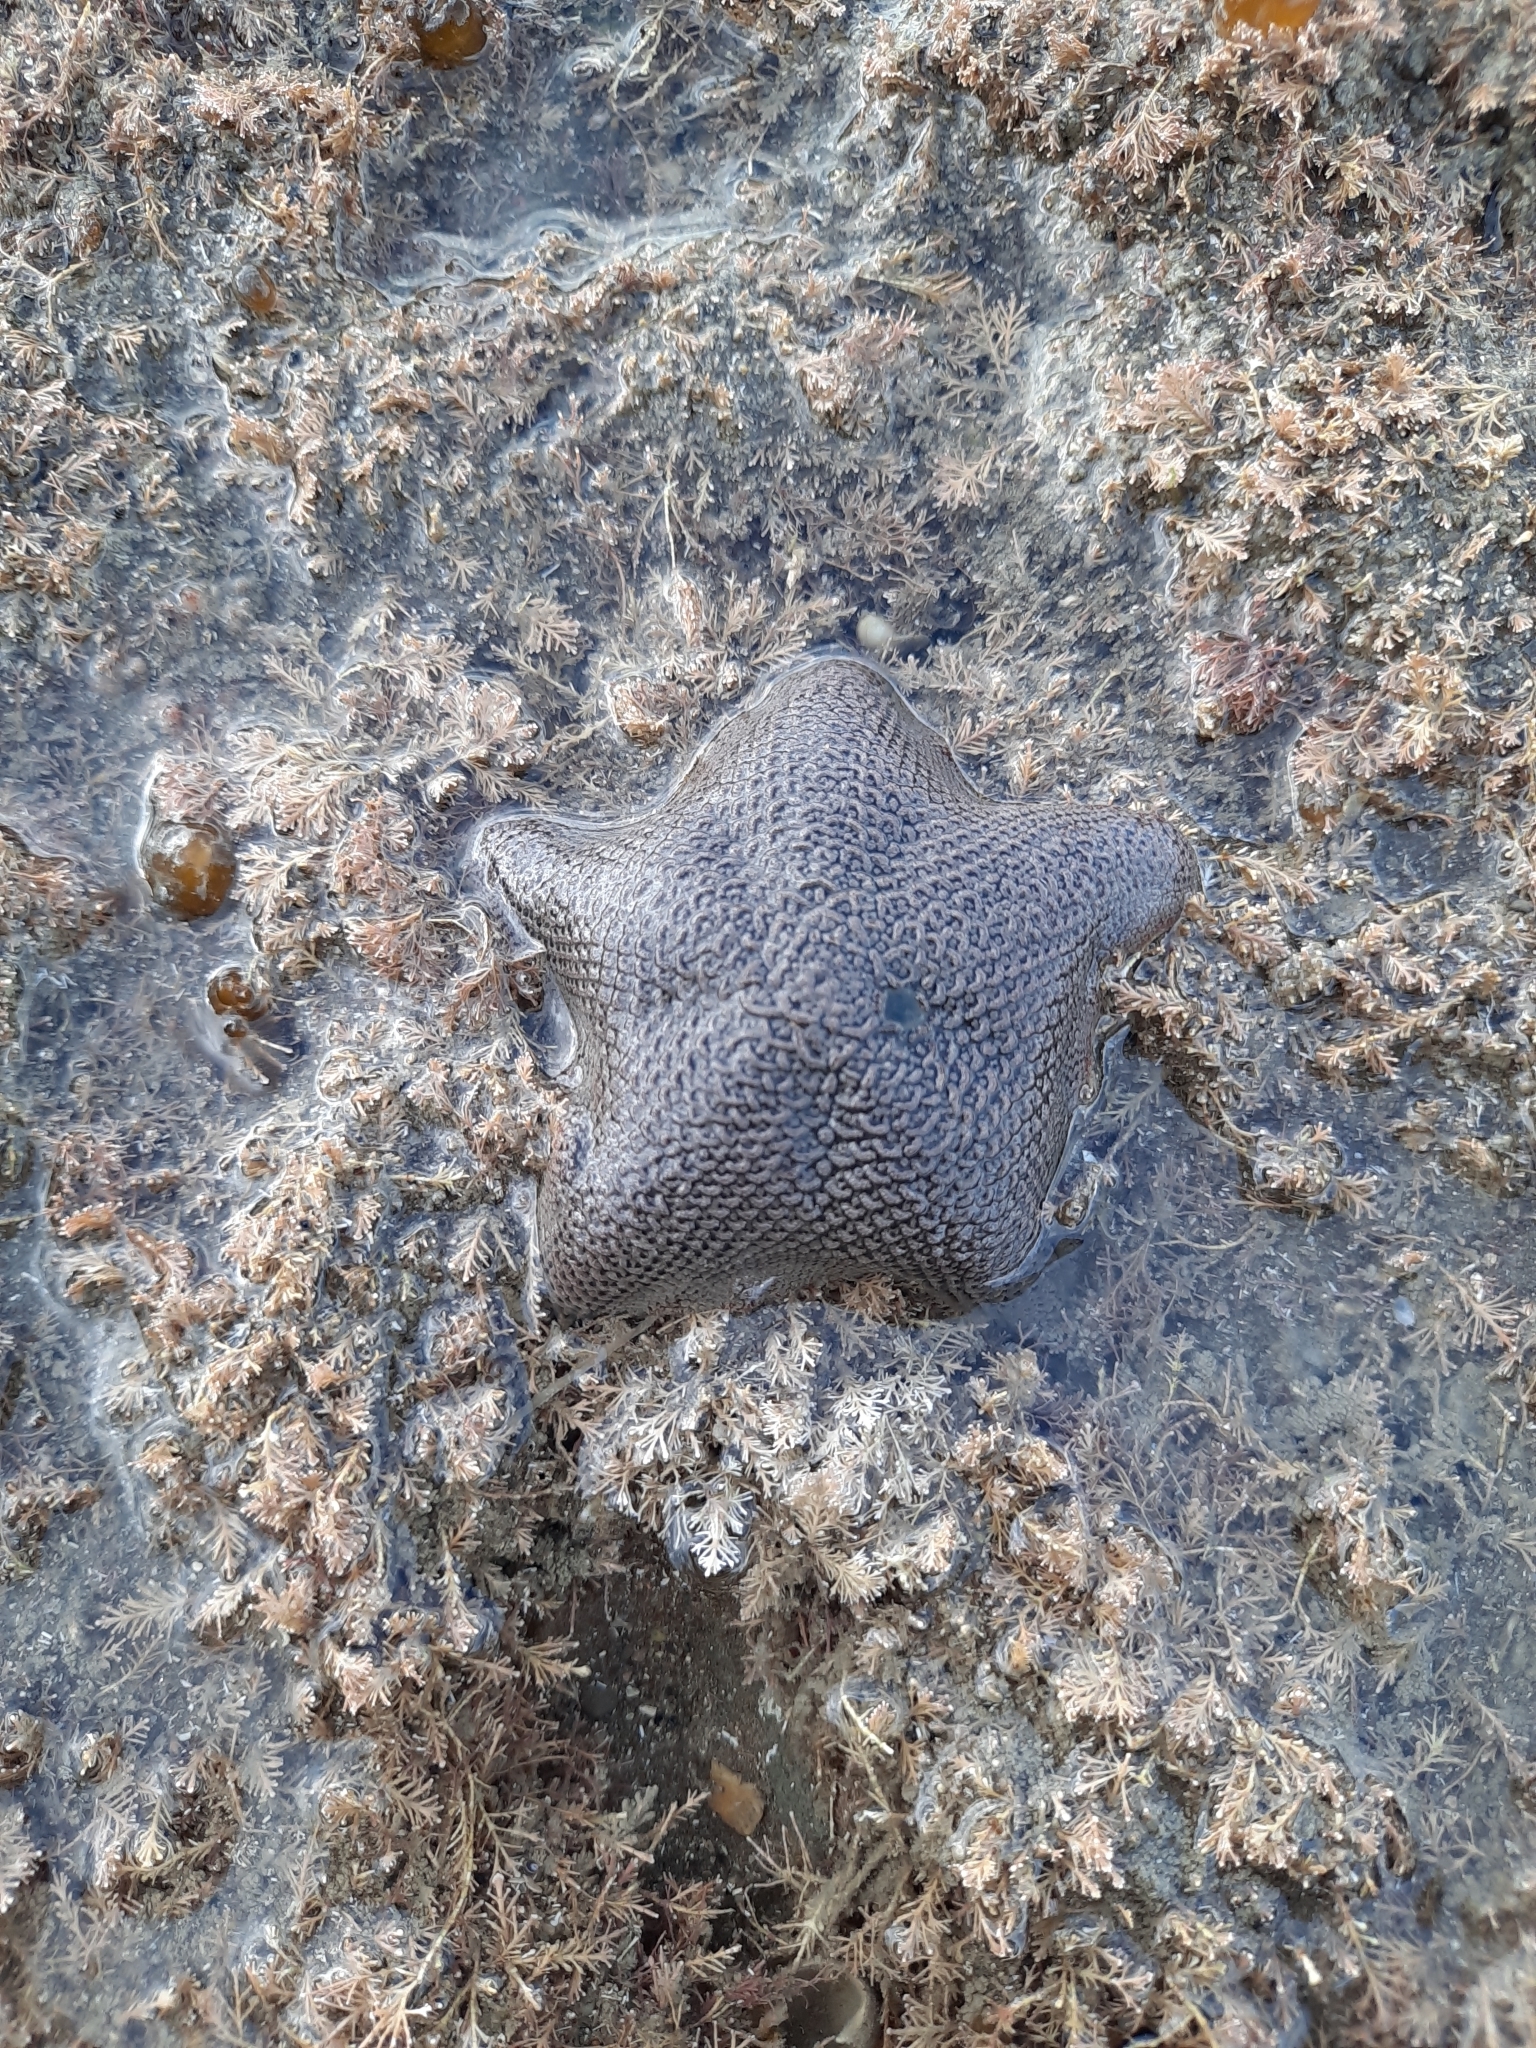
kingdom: Animalia
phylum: Echinodermata
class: Asteroidea
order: Valvatida
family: Asterinidae
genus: Patiriella
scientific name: Patiriella regularis
